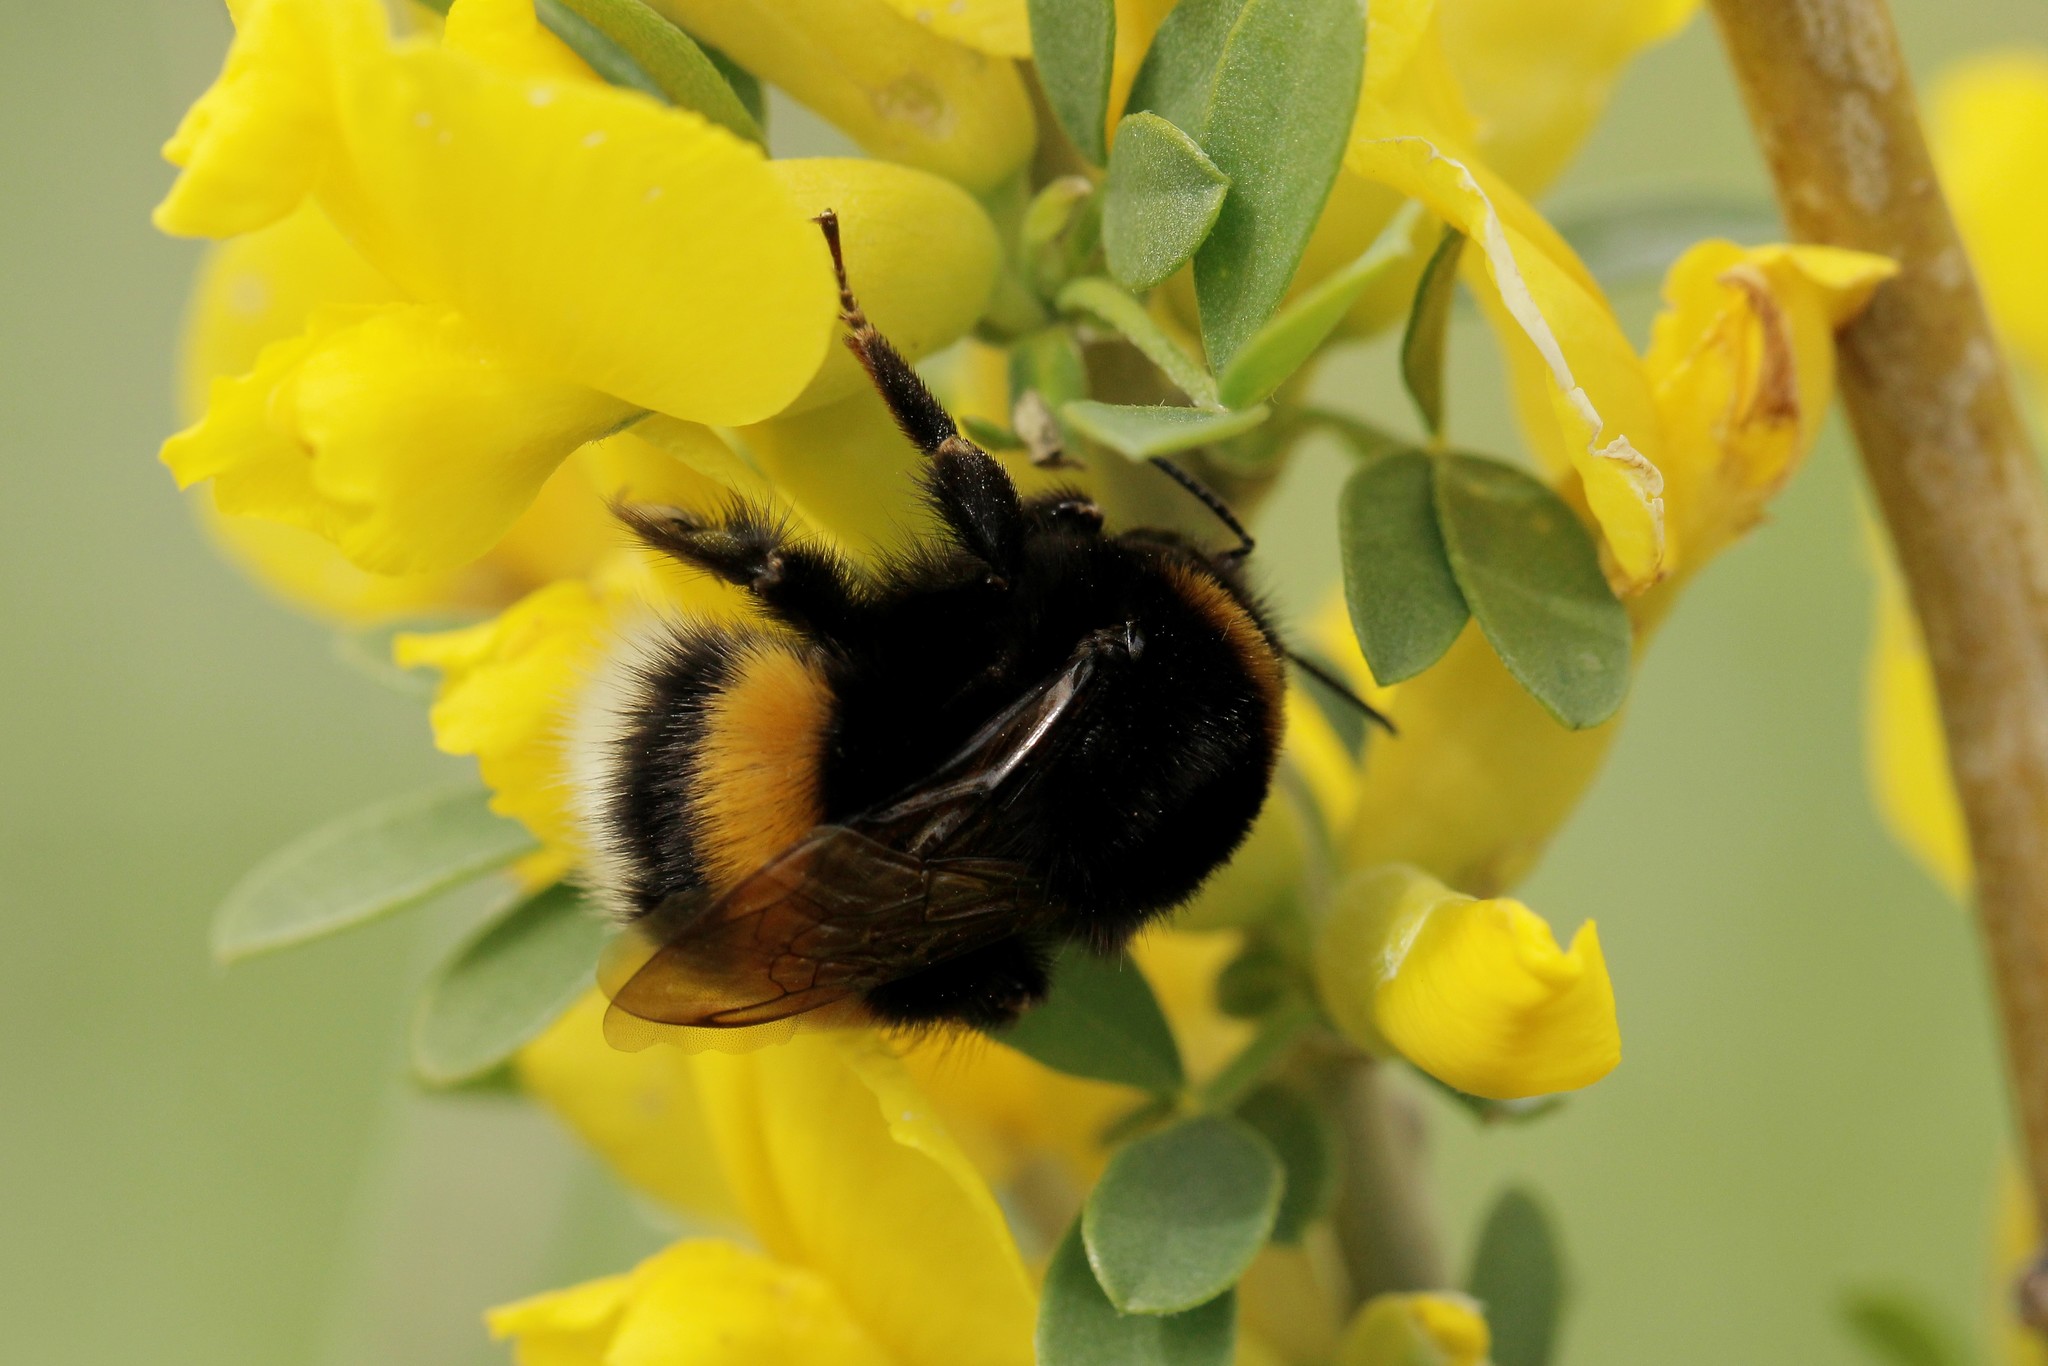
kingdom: Animalia
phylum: Arthropoda
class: Insecta
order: Hymenoptera
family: Apidae
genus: Bombus
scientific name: Bombus
